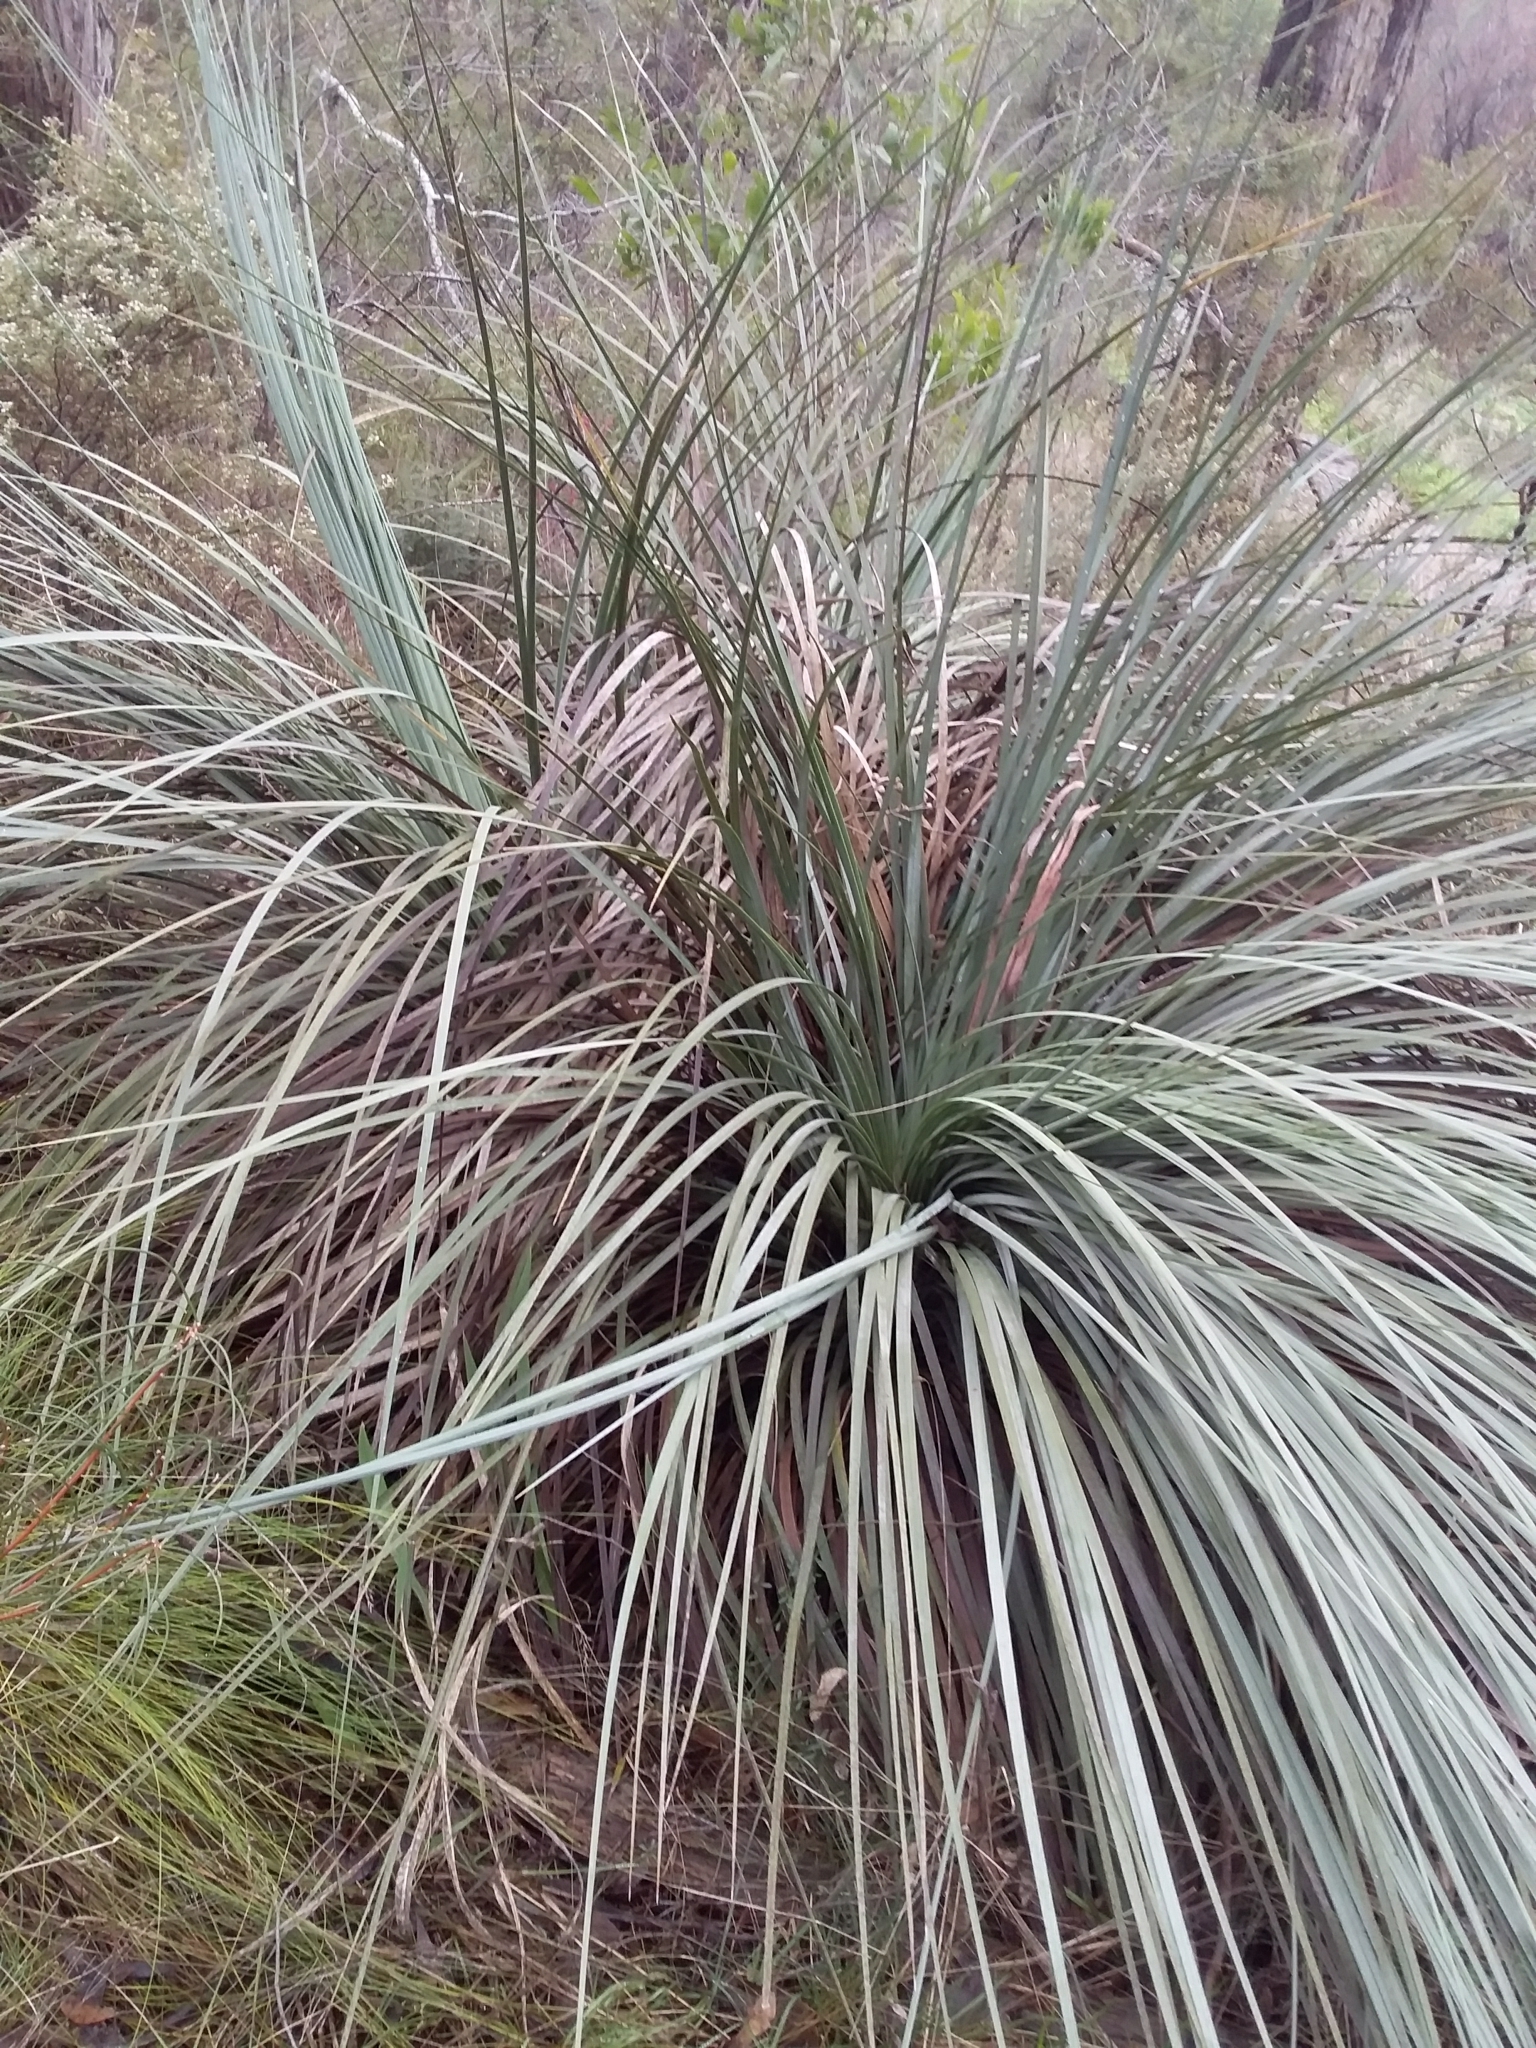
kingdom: Plantae
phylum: Tracheophyta
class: Liliopsida
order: Asparagales
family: Asphodelaceae
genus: Xanthorrhoea
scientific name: Xanthorrhoea semiplana
